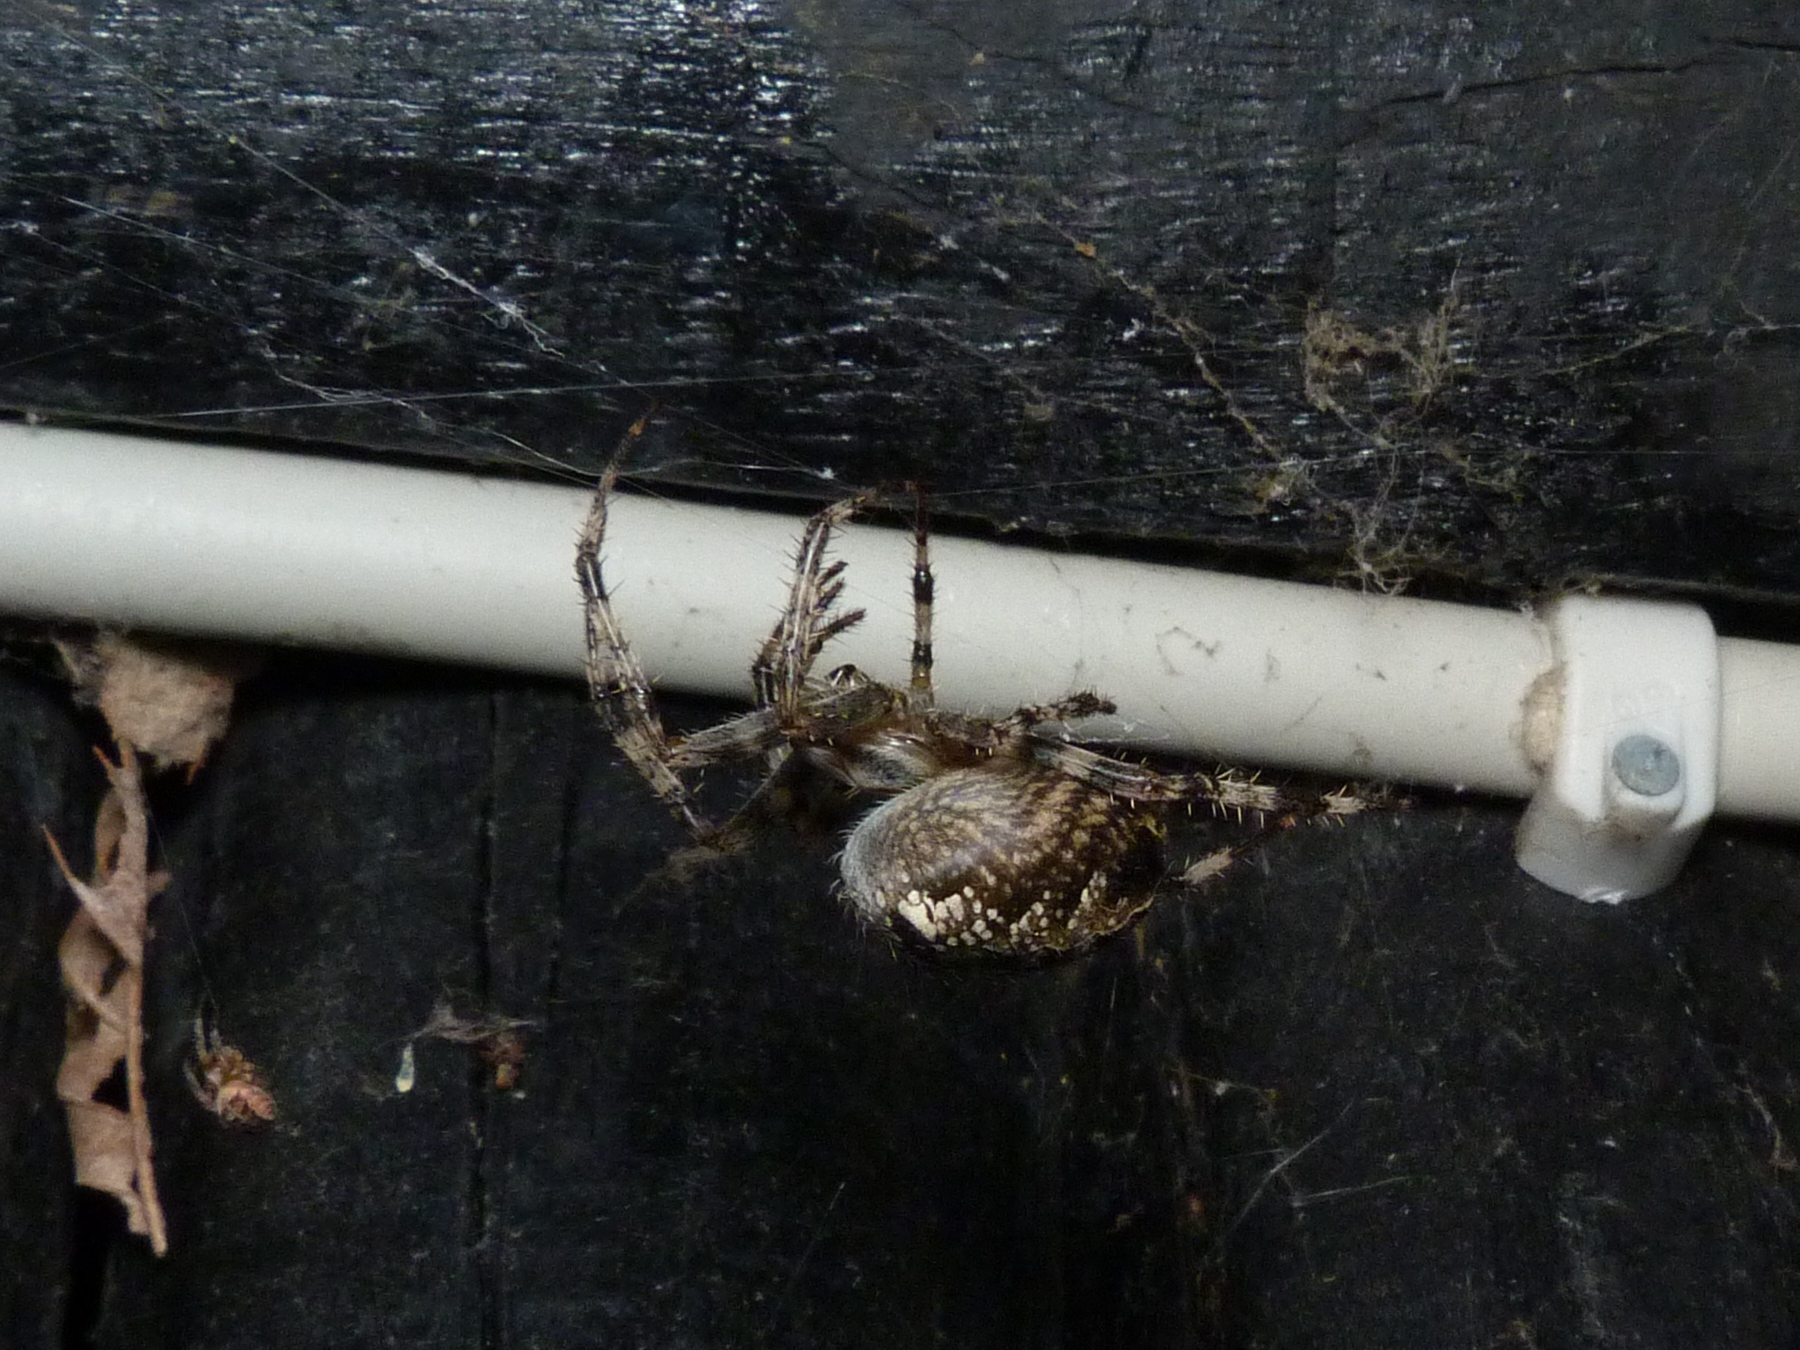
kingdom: Animalia
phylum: Arthropoda
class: Arachnida
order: Araneae
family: Araneidae
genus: Araneus
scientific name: Araneus diadematus
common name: Cross orbweaver
